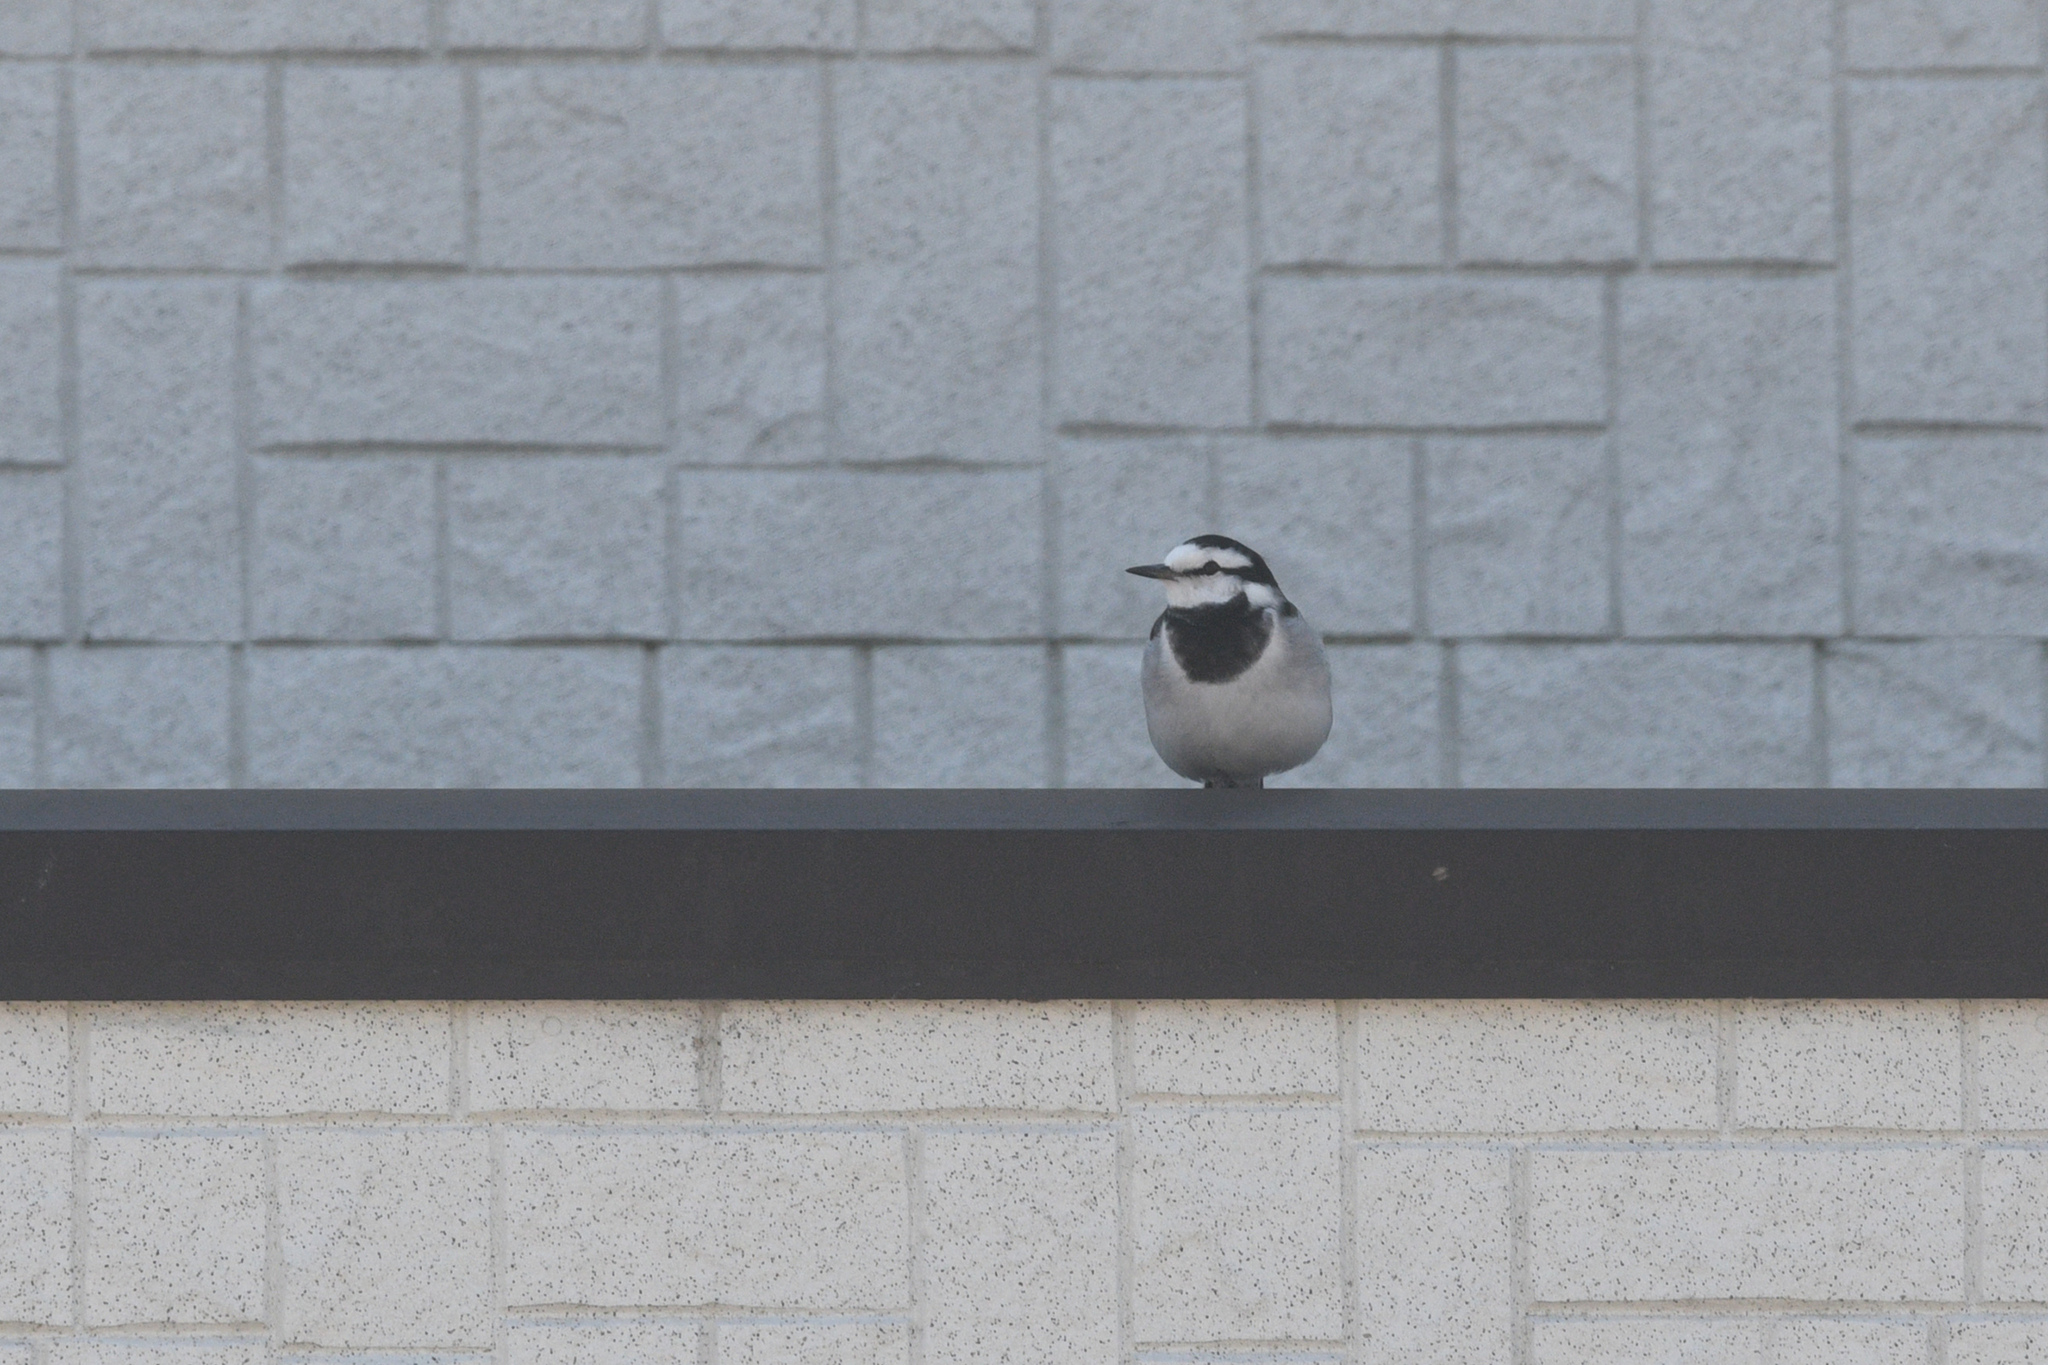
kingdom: Animalia
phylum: Chordata
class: Aves
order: Passeriformes
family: Motacillidae
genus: Motacilla
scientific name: Motacilla alba
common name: White wagtail
